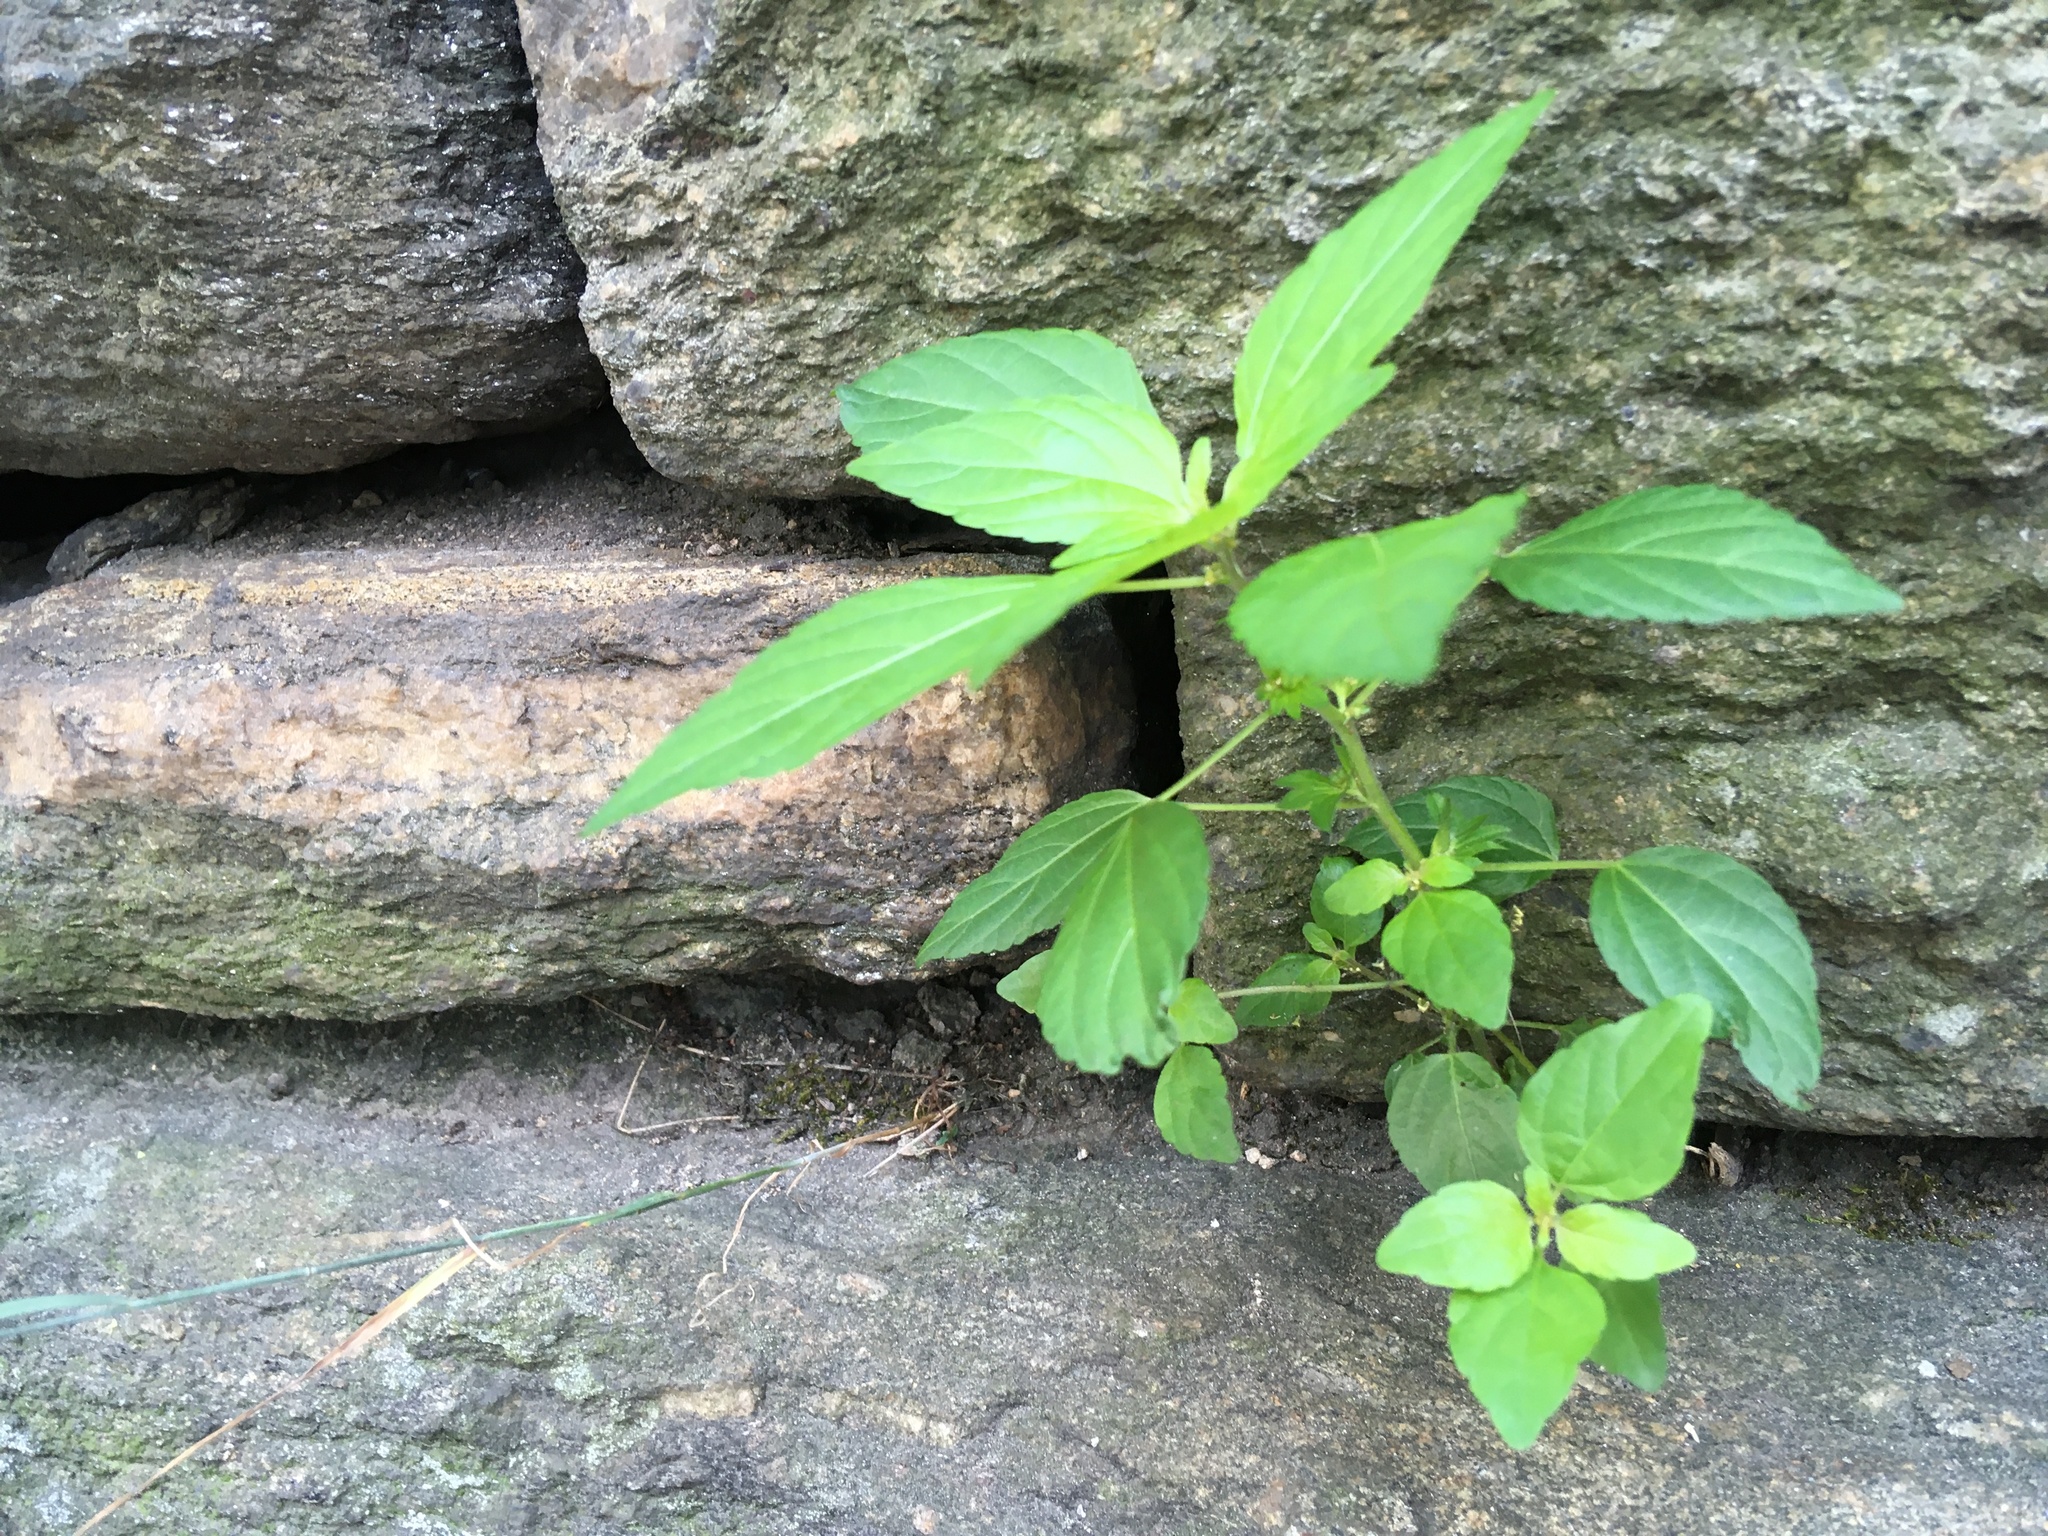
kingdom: Plantae
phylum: Tracheophyta
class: Magnoliopsida
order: Malpighiales
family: Euphorbiaceae
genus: Acalypha
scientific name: Acalypha rhomboidea
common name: Rhombic copperleaf
